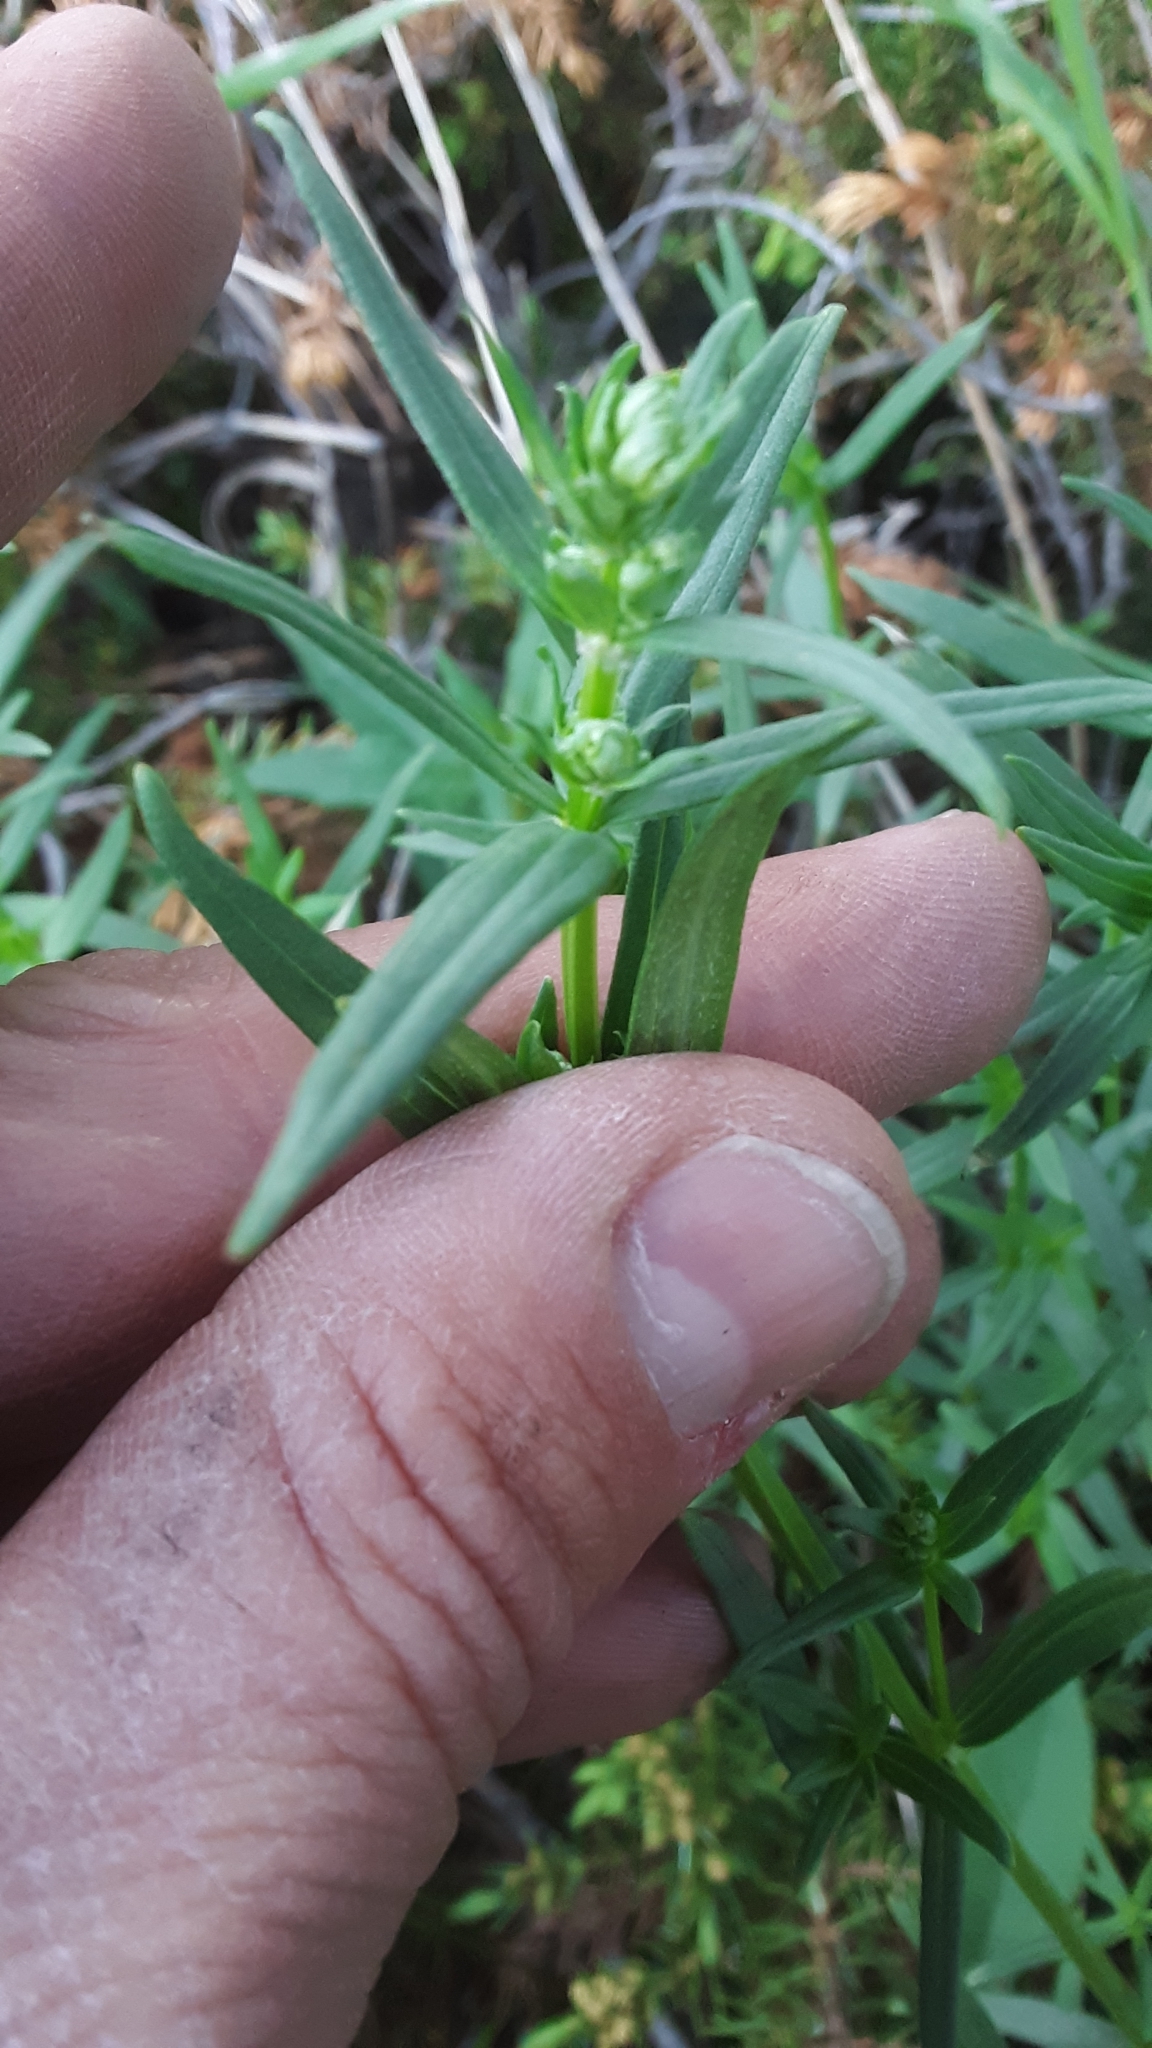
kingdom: Plantae
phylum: Tracheophyta
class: Magnoliopsida
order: Gentianales
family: Rubiaceae
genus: Galium
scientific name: Galium boreale
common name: Northern bedstraw
